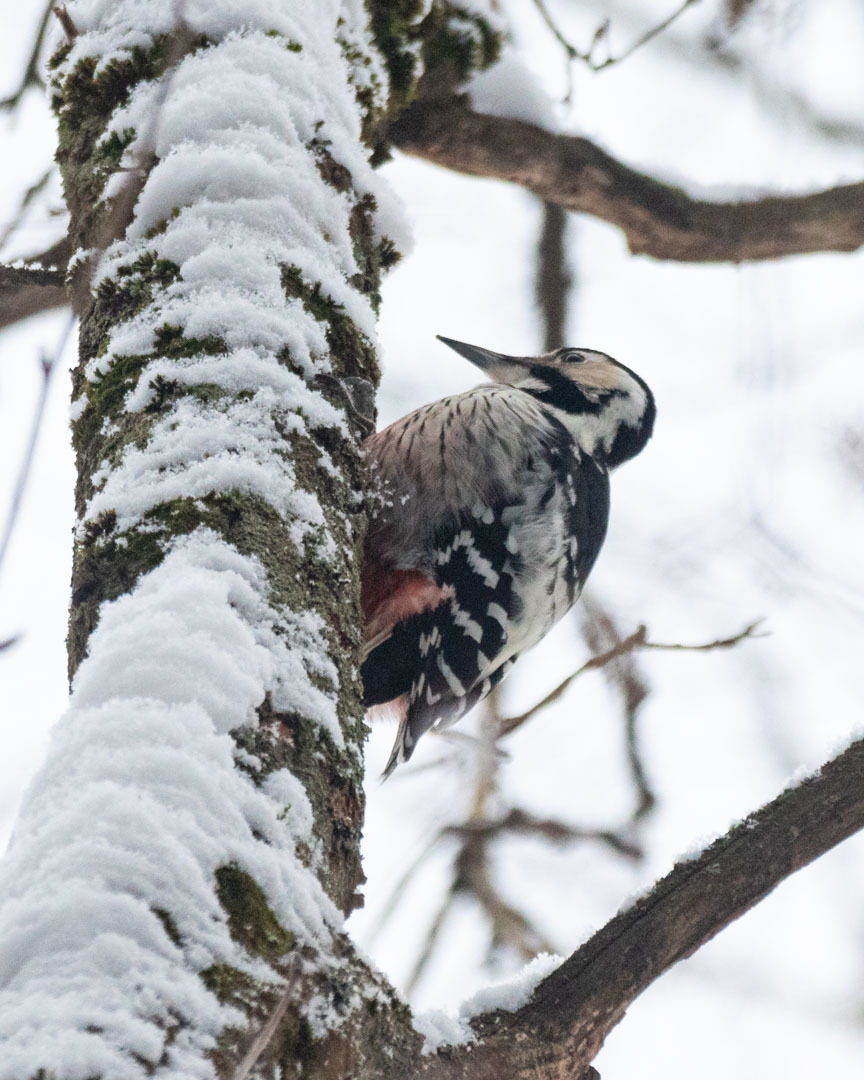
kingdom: Animalia
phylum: Chordata
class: Aves
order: Piciformes
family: Picidae
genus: Dendrocopos
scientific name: Dendrocopos leucotos
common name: White-backed woodpecker
